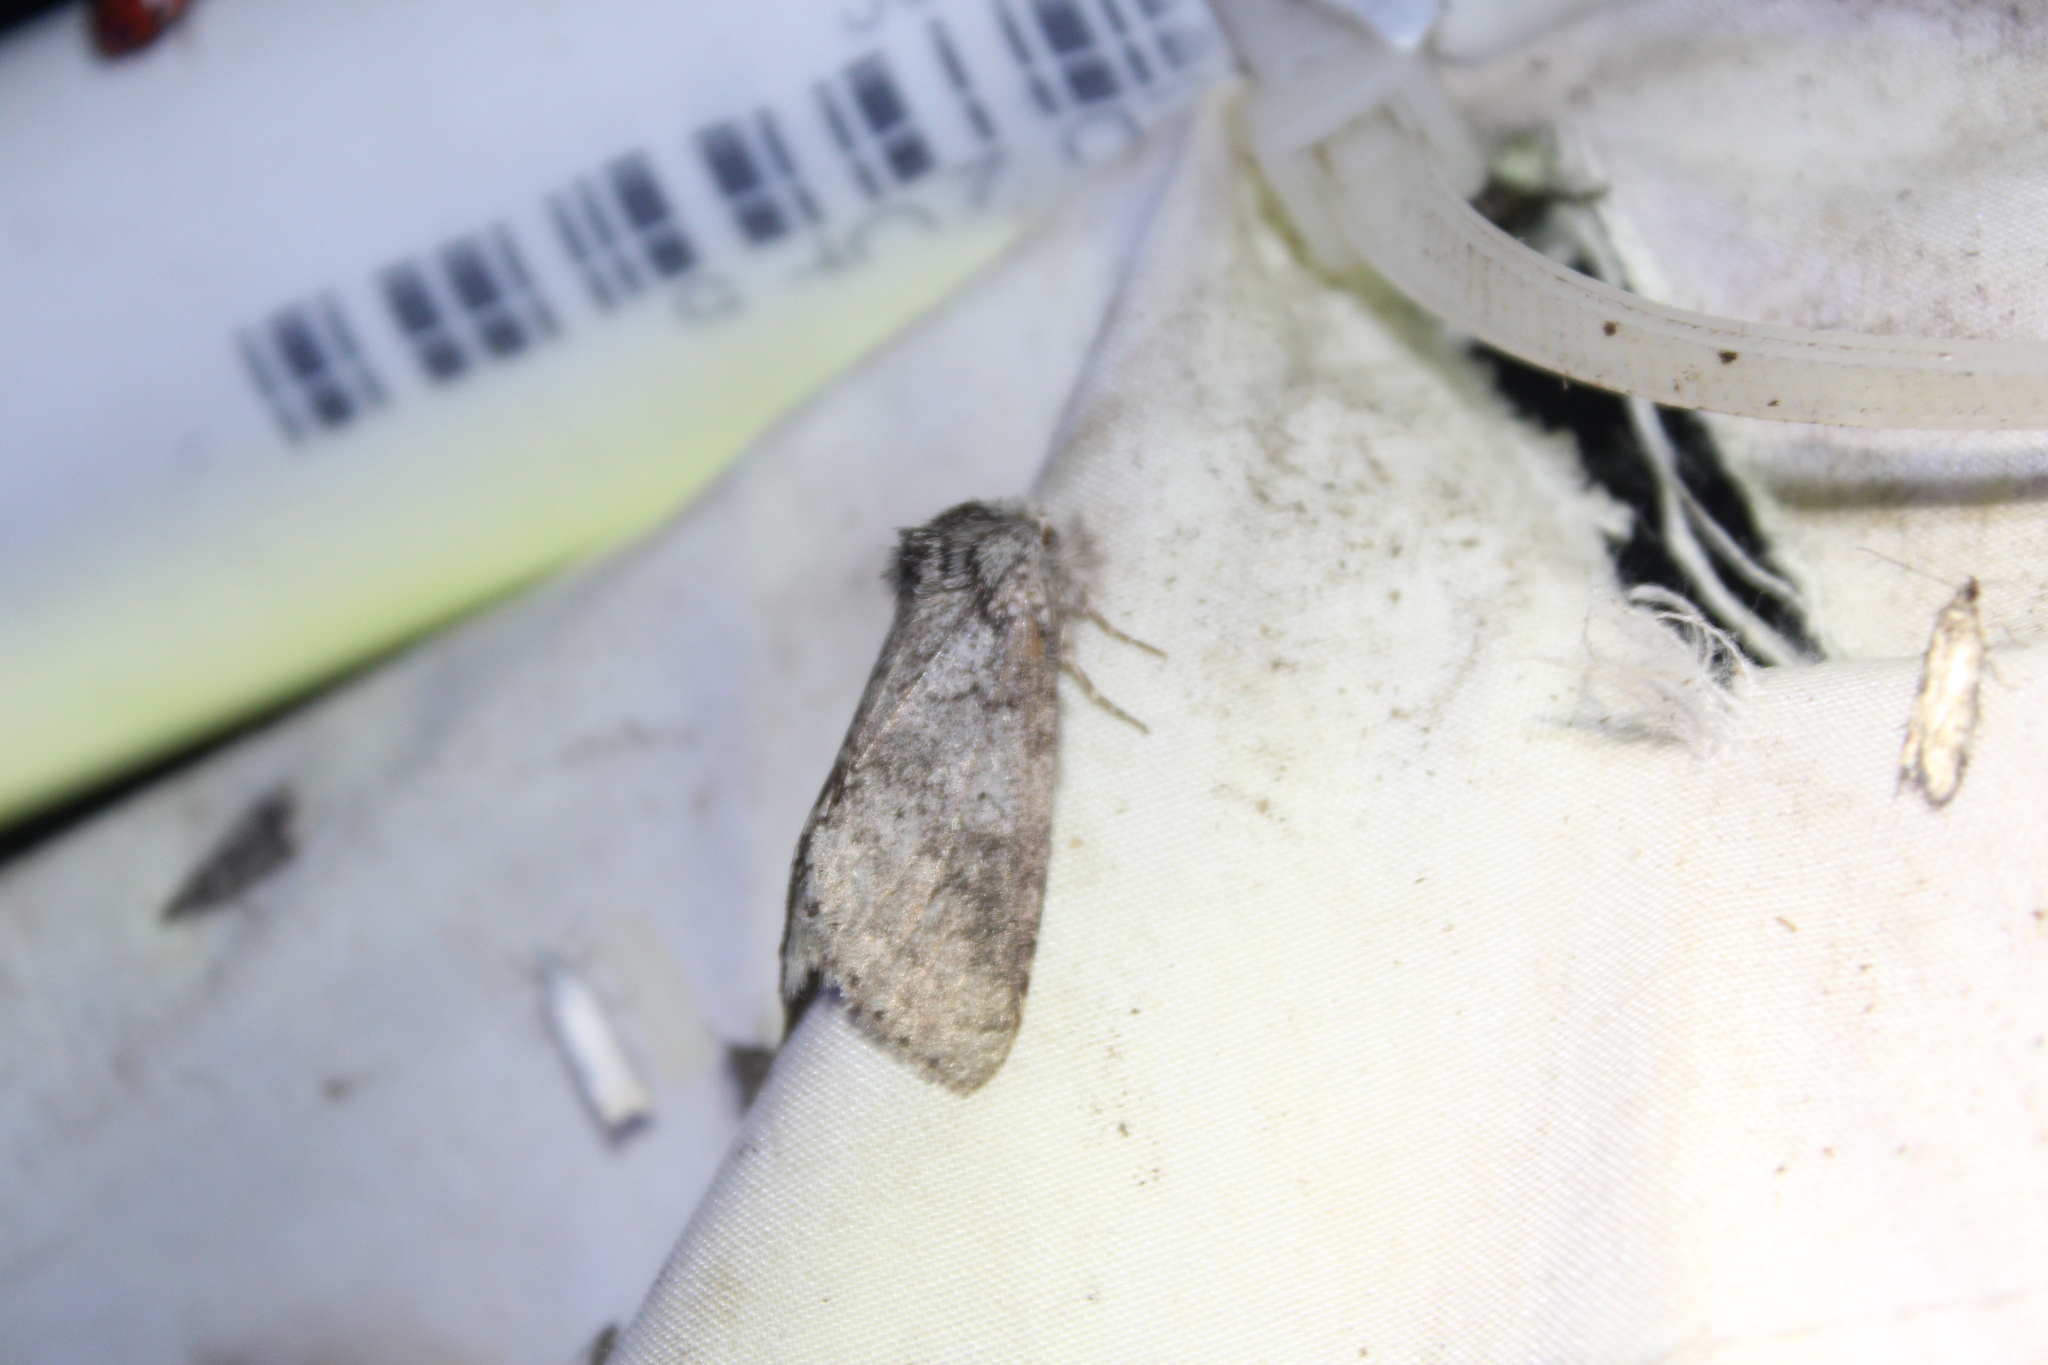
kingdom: Animalia
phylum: Arthropoda
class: Insecta
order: Lepidoptera
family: Notodontidae
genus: Lochmaeus
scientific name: Lochmaeus manteo
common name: Variable oakleaf caterpillar moth
